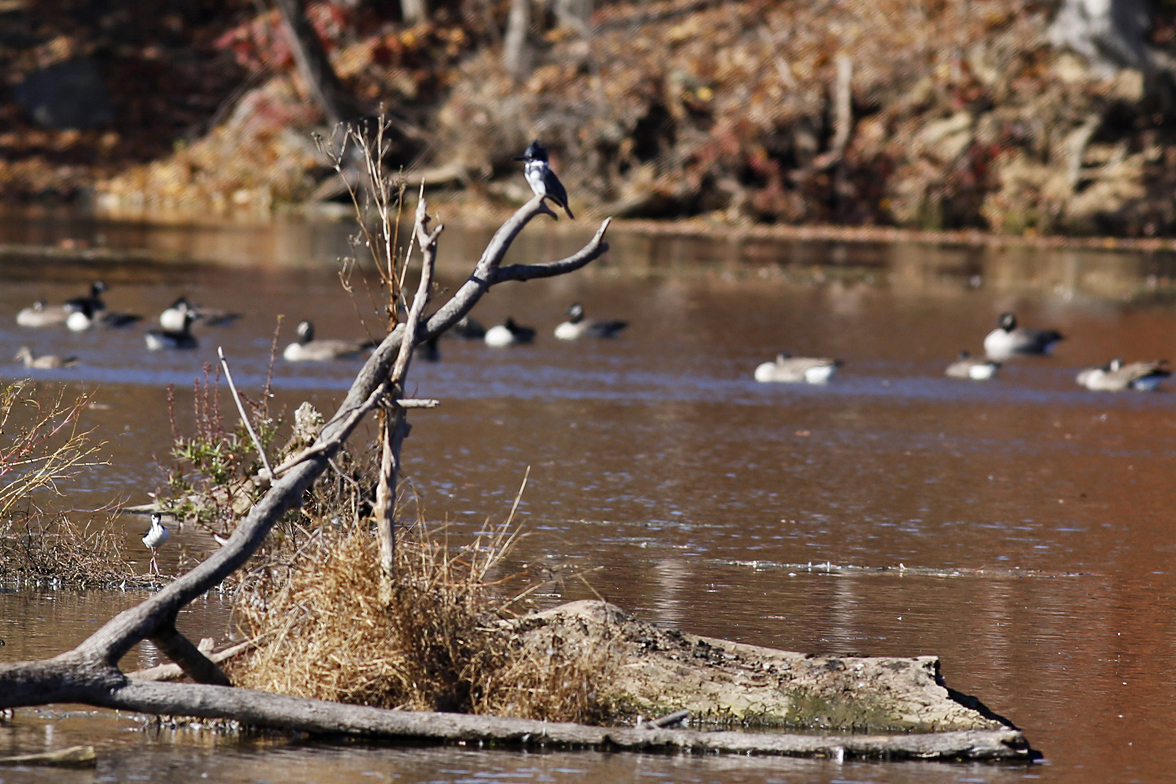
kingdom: Animalia
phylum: Chordata
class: Aves
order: Coraciiformes
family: Alcedinidae
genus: Megaceryle
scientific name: Megaceryle alcyon
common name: Belted kingfisher
